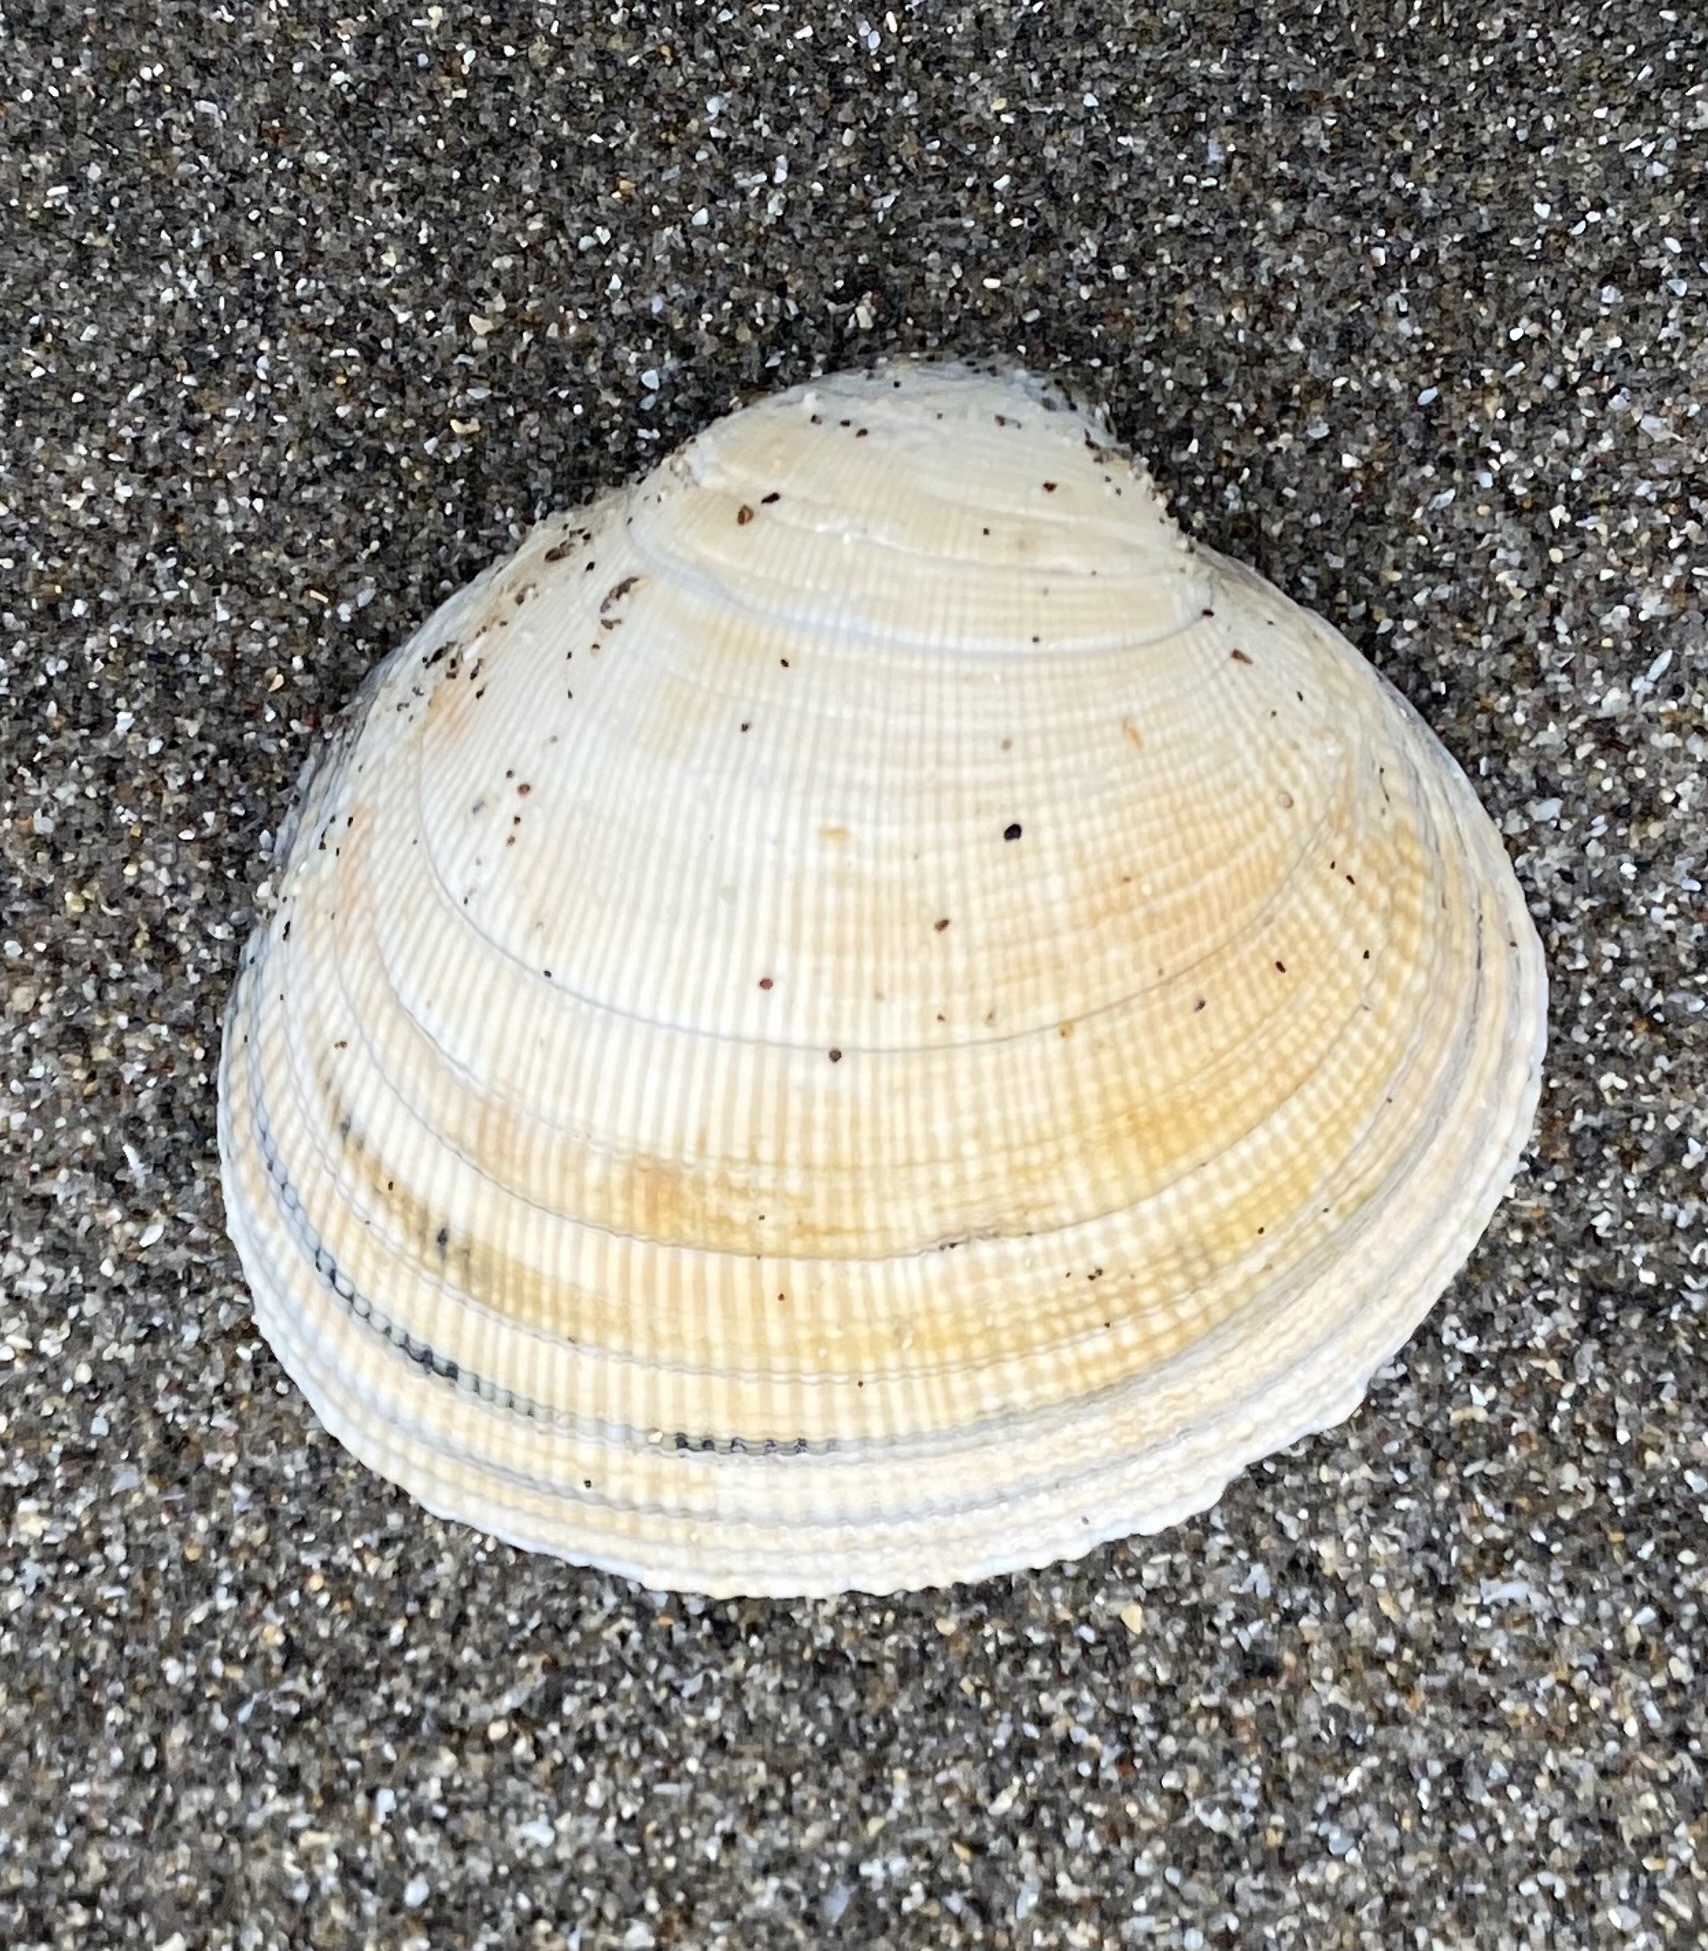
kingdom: Animalia
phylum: Mollusca
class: Bivalvia
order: Venerida
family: Veneridae
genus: Leukoma
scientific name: Leukoma staminea
